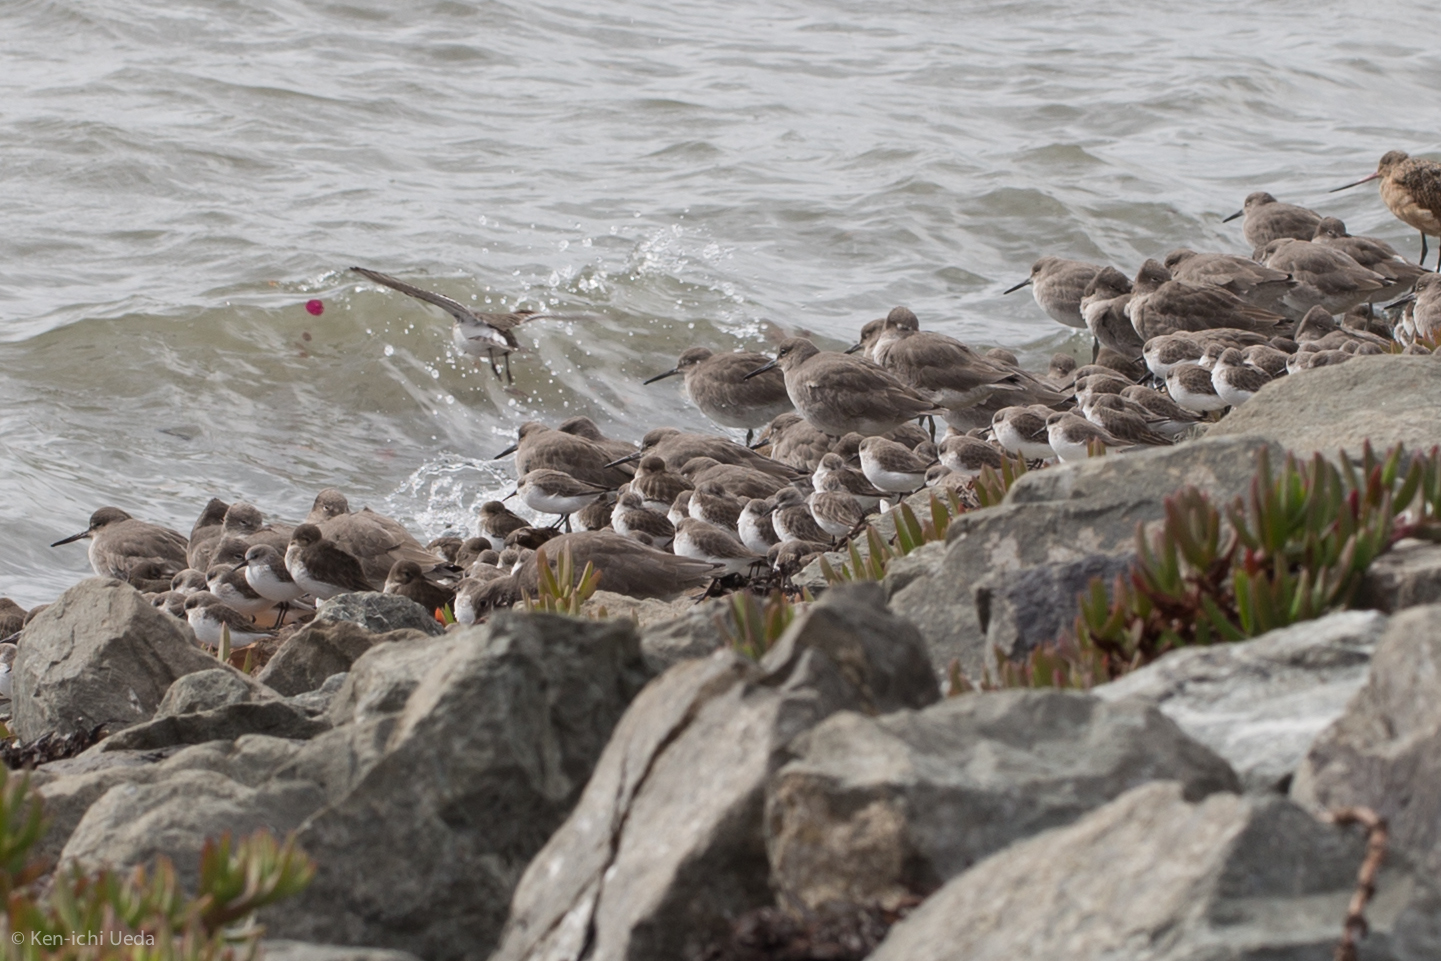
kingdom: Animalia
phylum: Chordata
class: Aves
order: Charadriiformes
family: Scolopacidae
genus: Calidris
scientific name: Calidris mauri
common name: Western sandpiper
